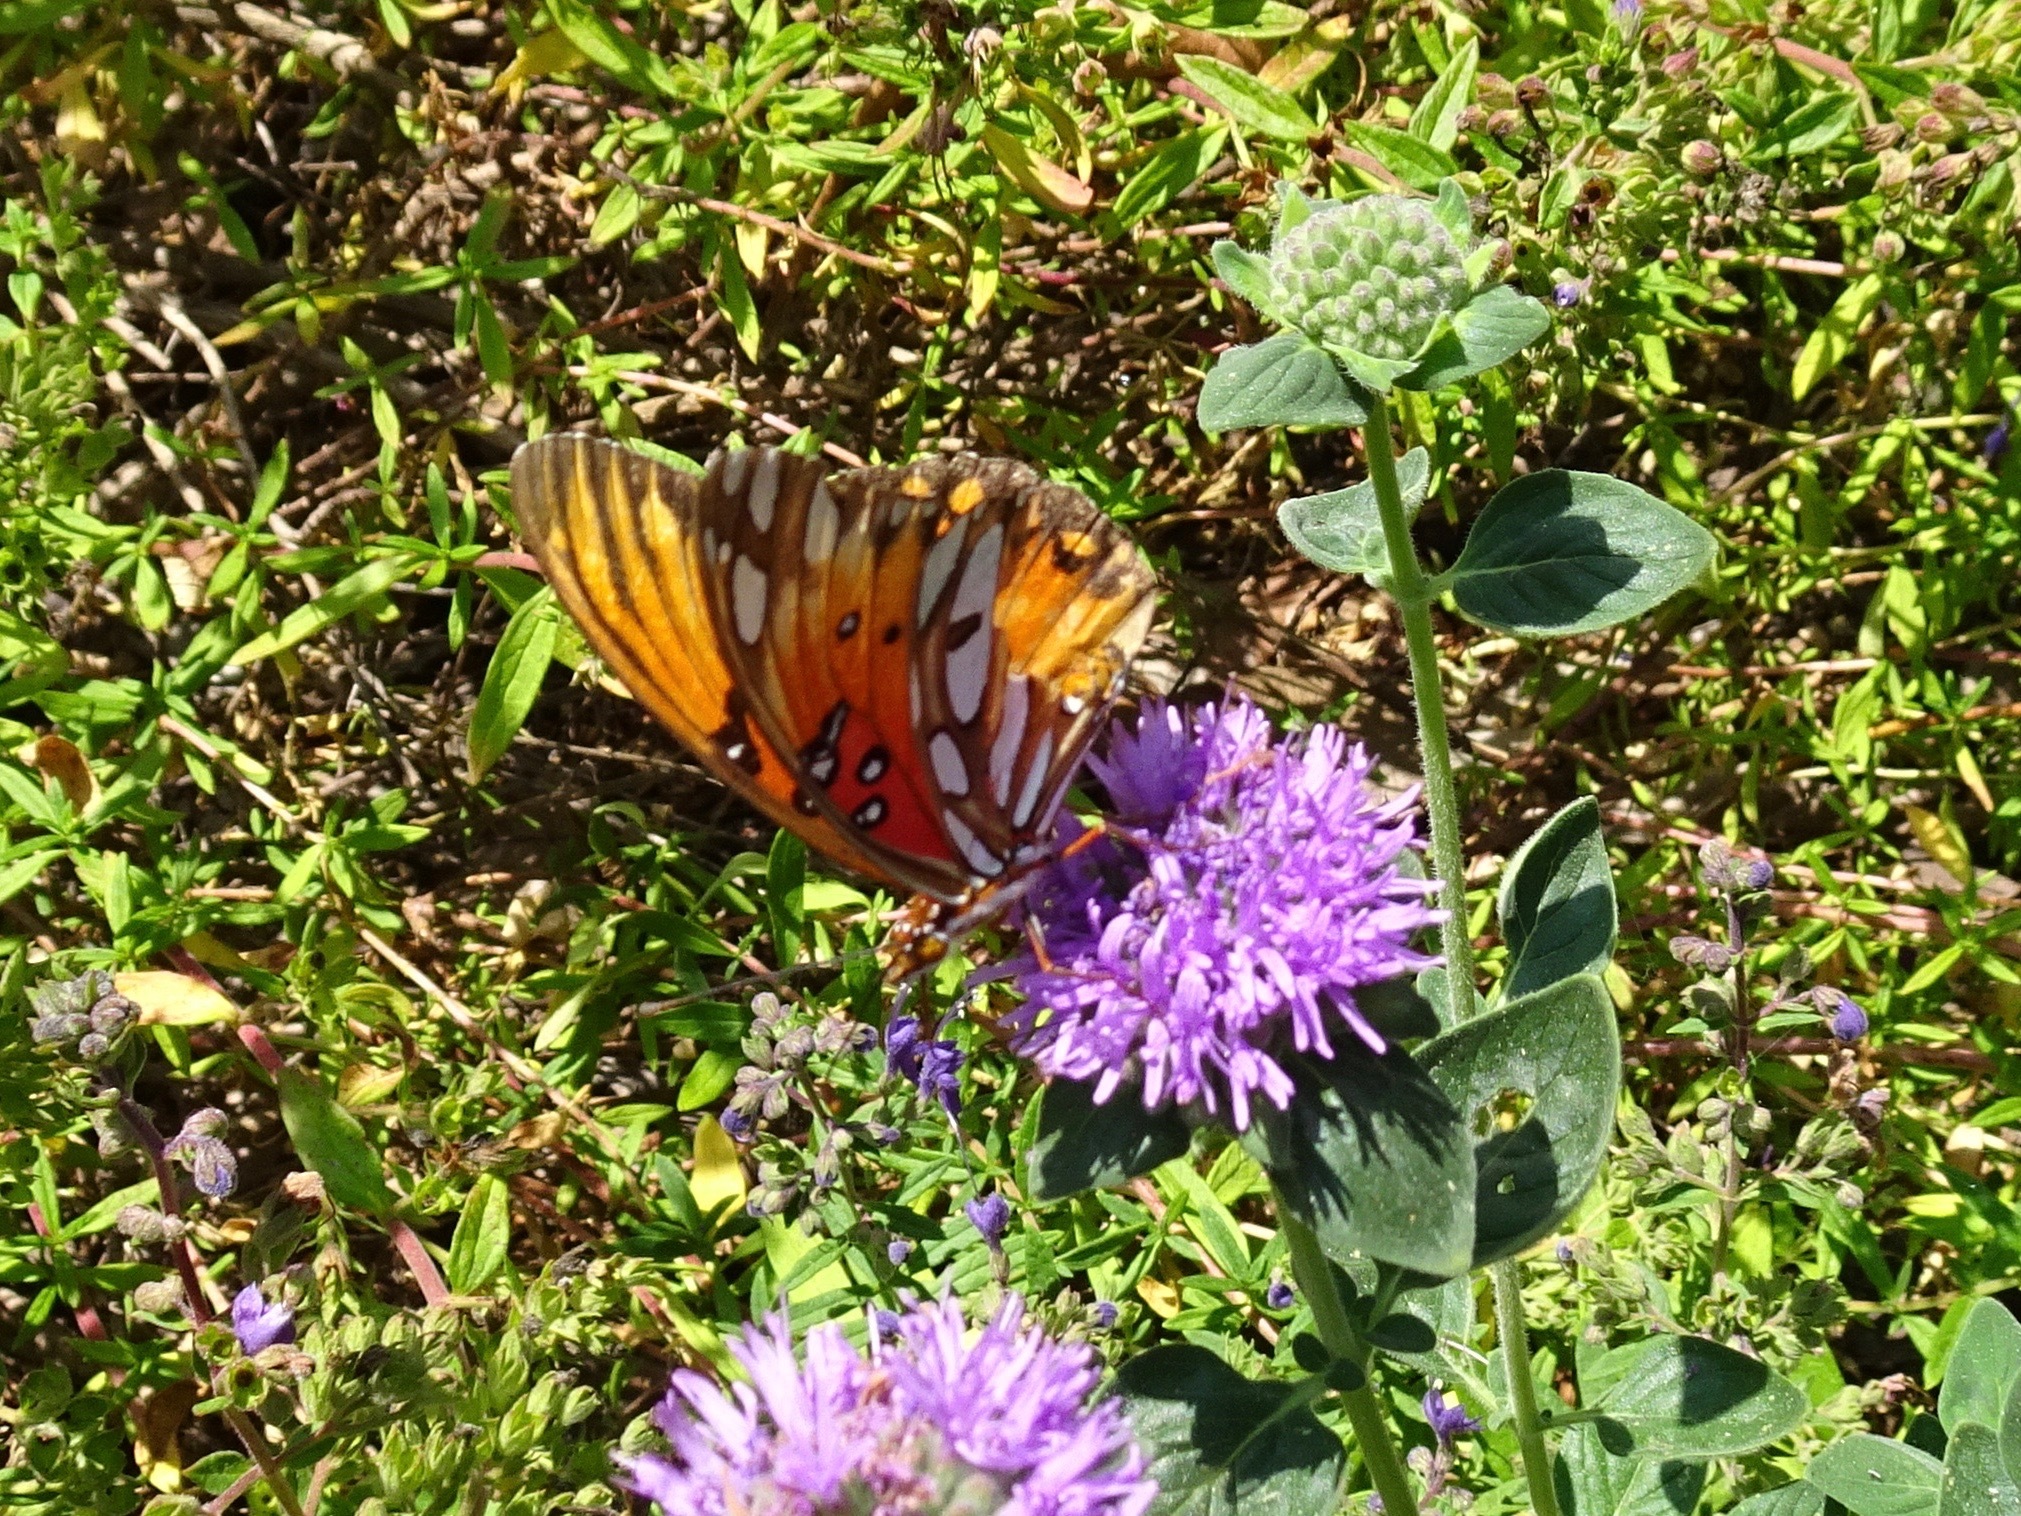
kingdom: Animalia
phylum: Arthropoda
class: Insecta
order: Lepidoptera
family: Nymphalidae
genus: Dione
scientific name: Dione vanillae
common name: Gulf fritillary
